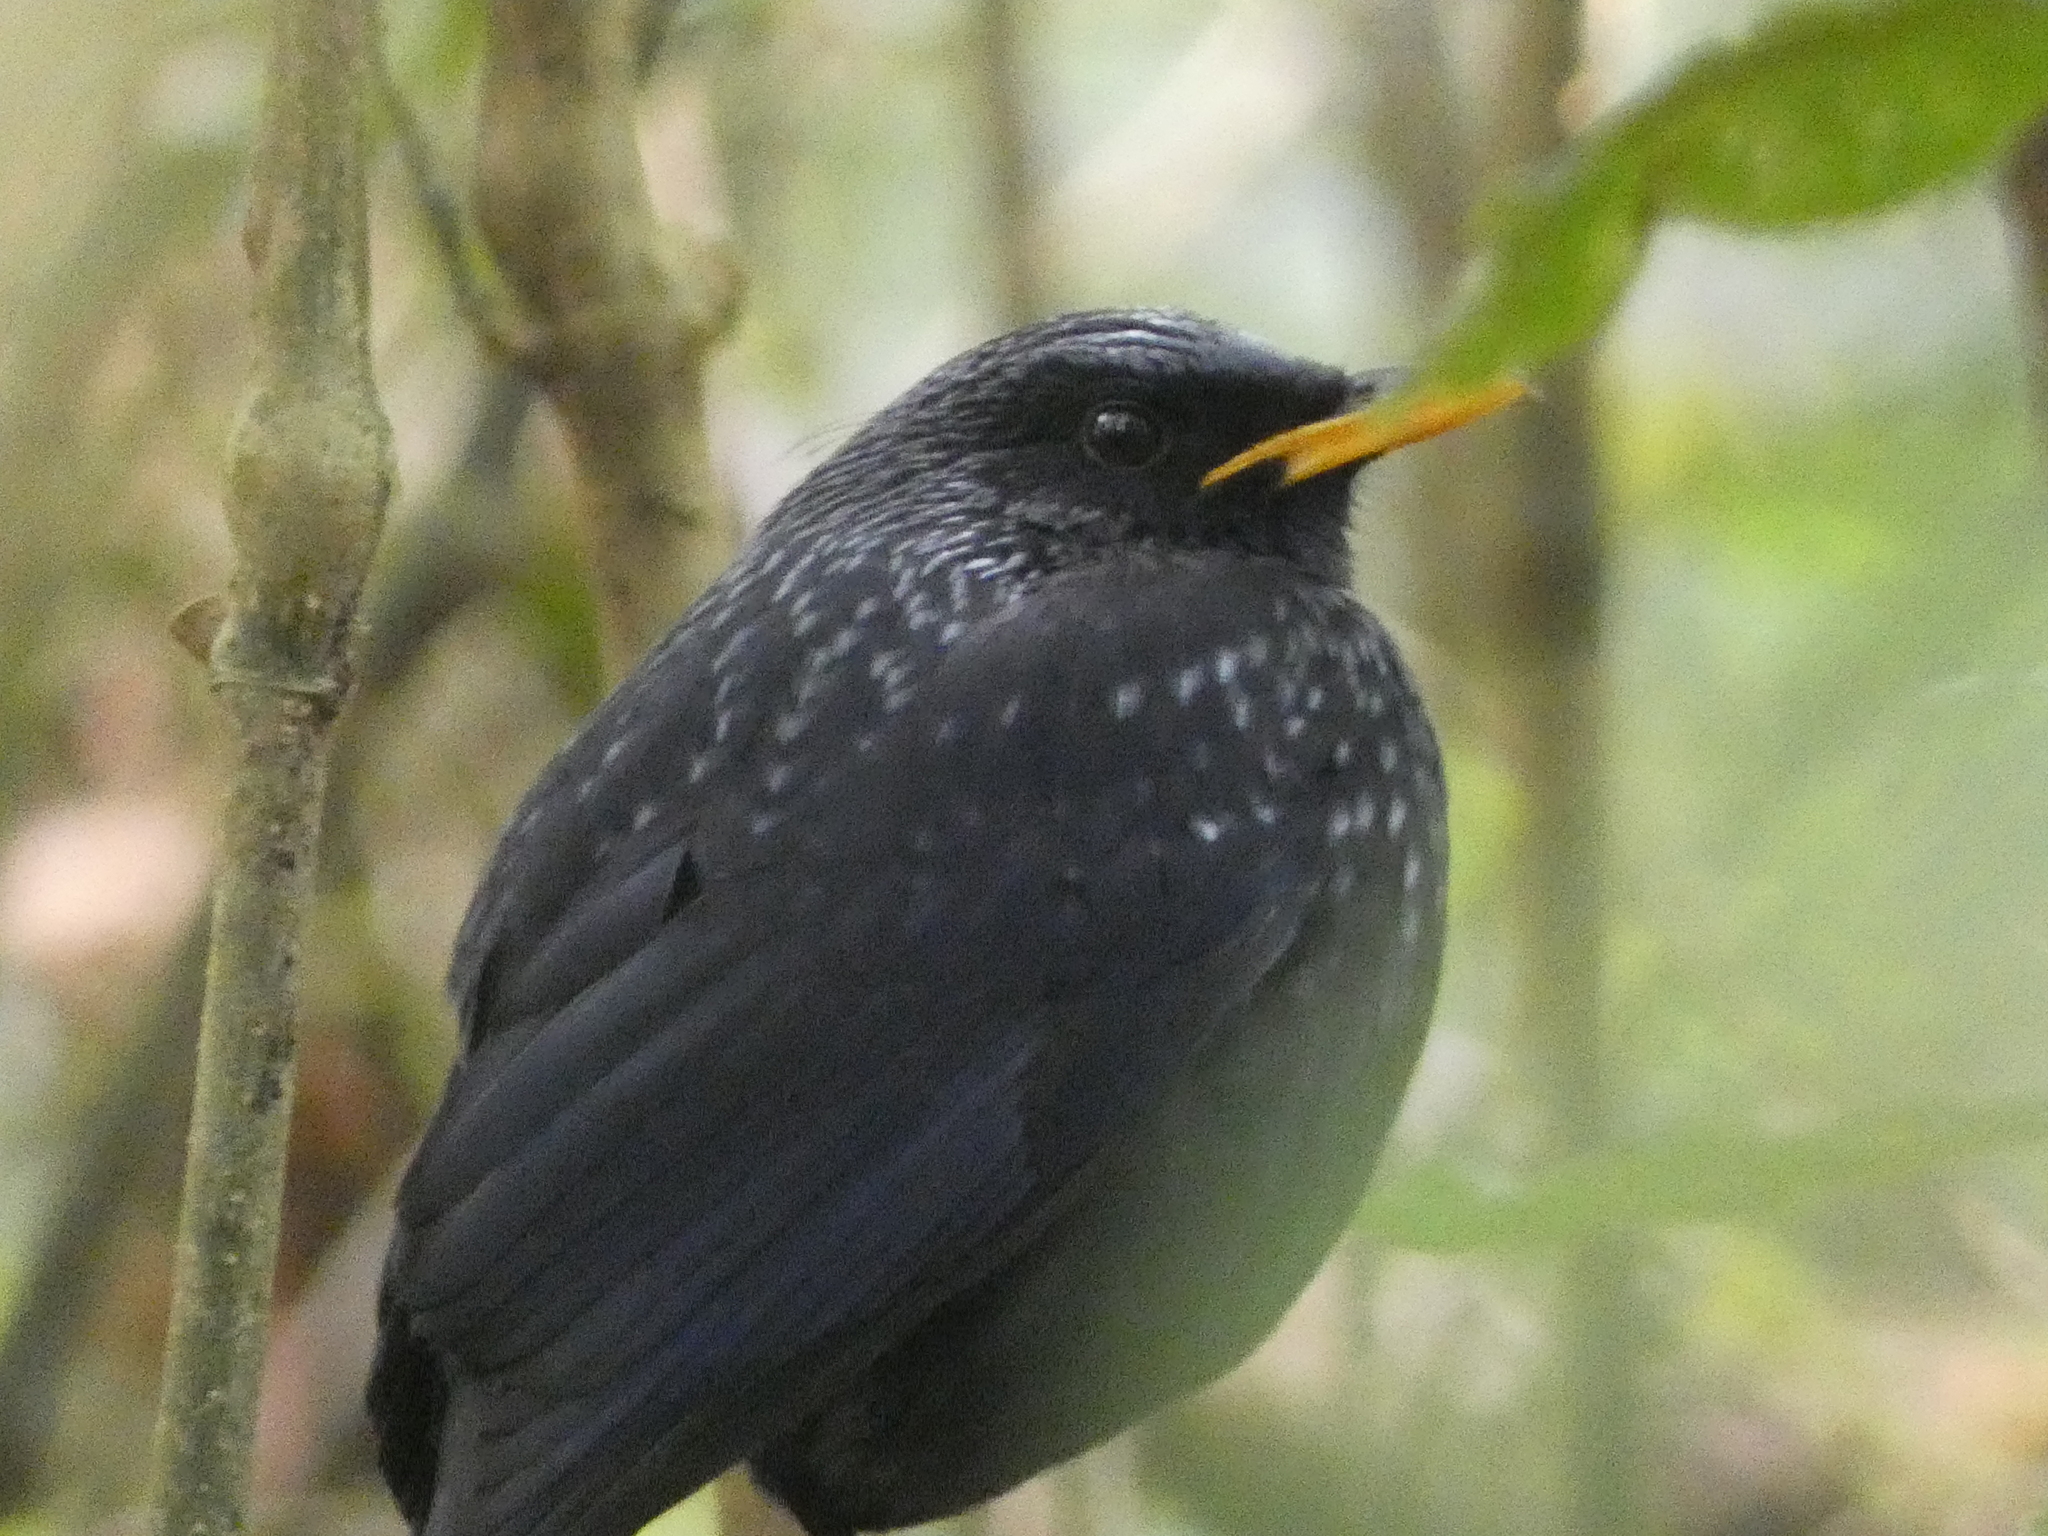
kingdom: Animalia
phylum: Chordata
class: Aves
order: Passeriformes
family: Muscicapidae
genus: Myophonus
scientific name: Myophonus caeruleus
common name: Blue whistling-thrush
